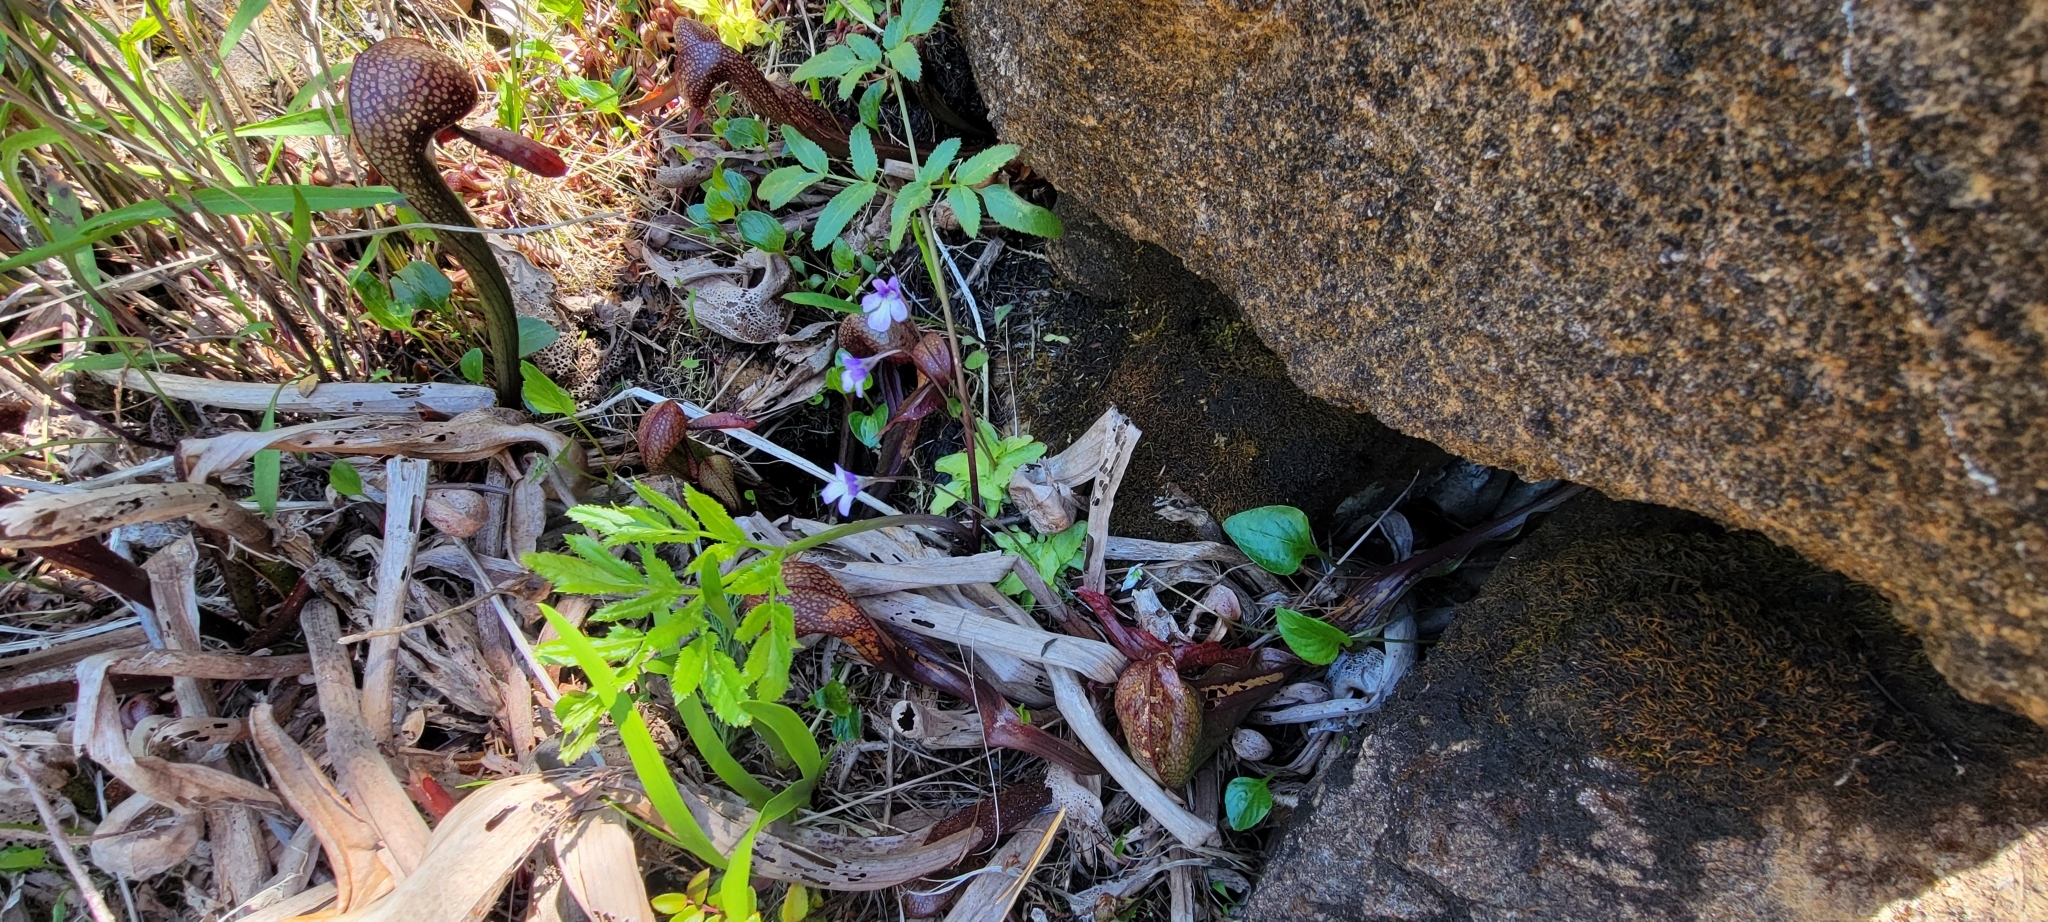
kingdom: Plantae
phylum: Tracheophyta
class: Magnoliopsida
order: Lamiales
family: Lentibulariaceae
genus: Pinguicula
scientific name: Pinguicula macroceras
